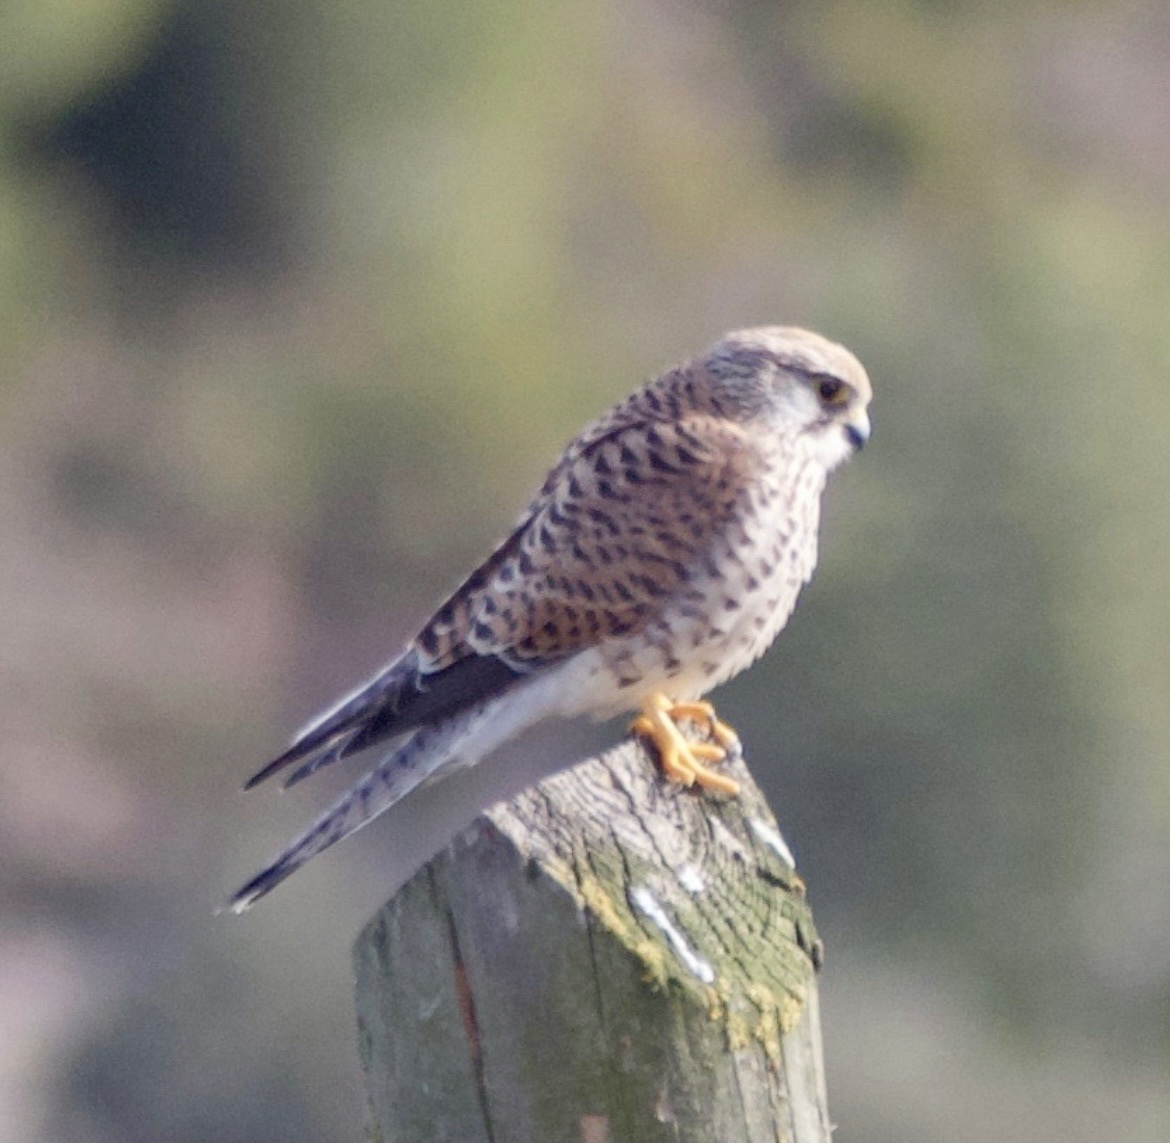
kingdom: Animalia
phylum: Chordata
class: Aves
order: Falconiformes
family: Falconidae
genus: Falco
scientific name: Falco tinnunculus
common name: Common kestrel
